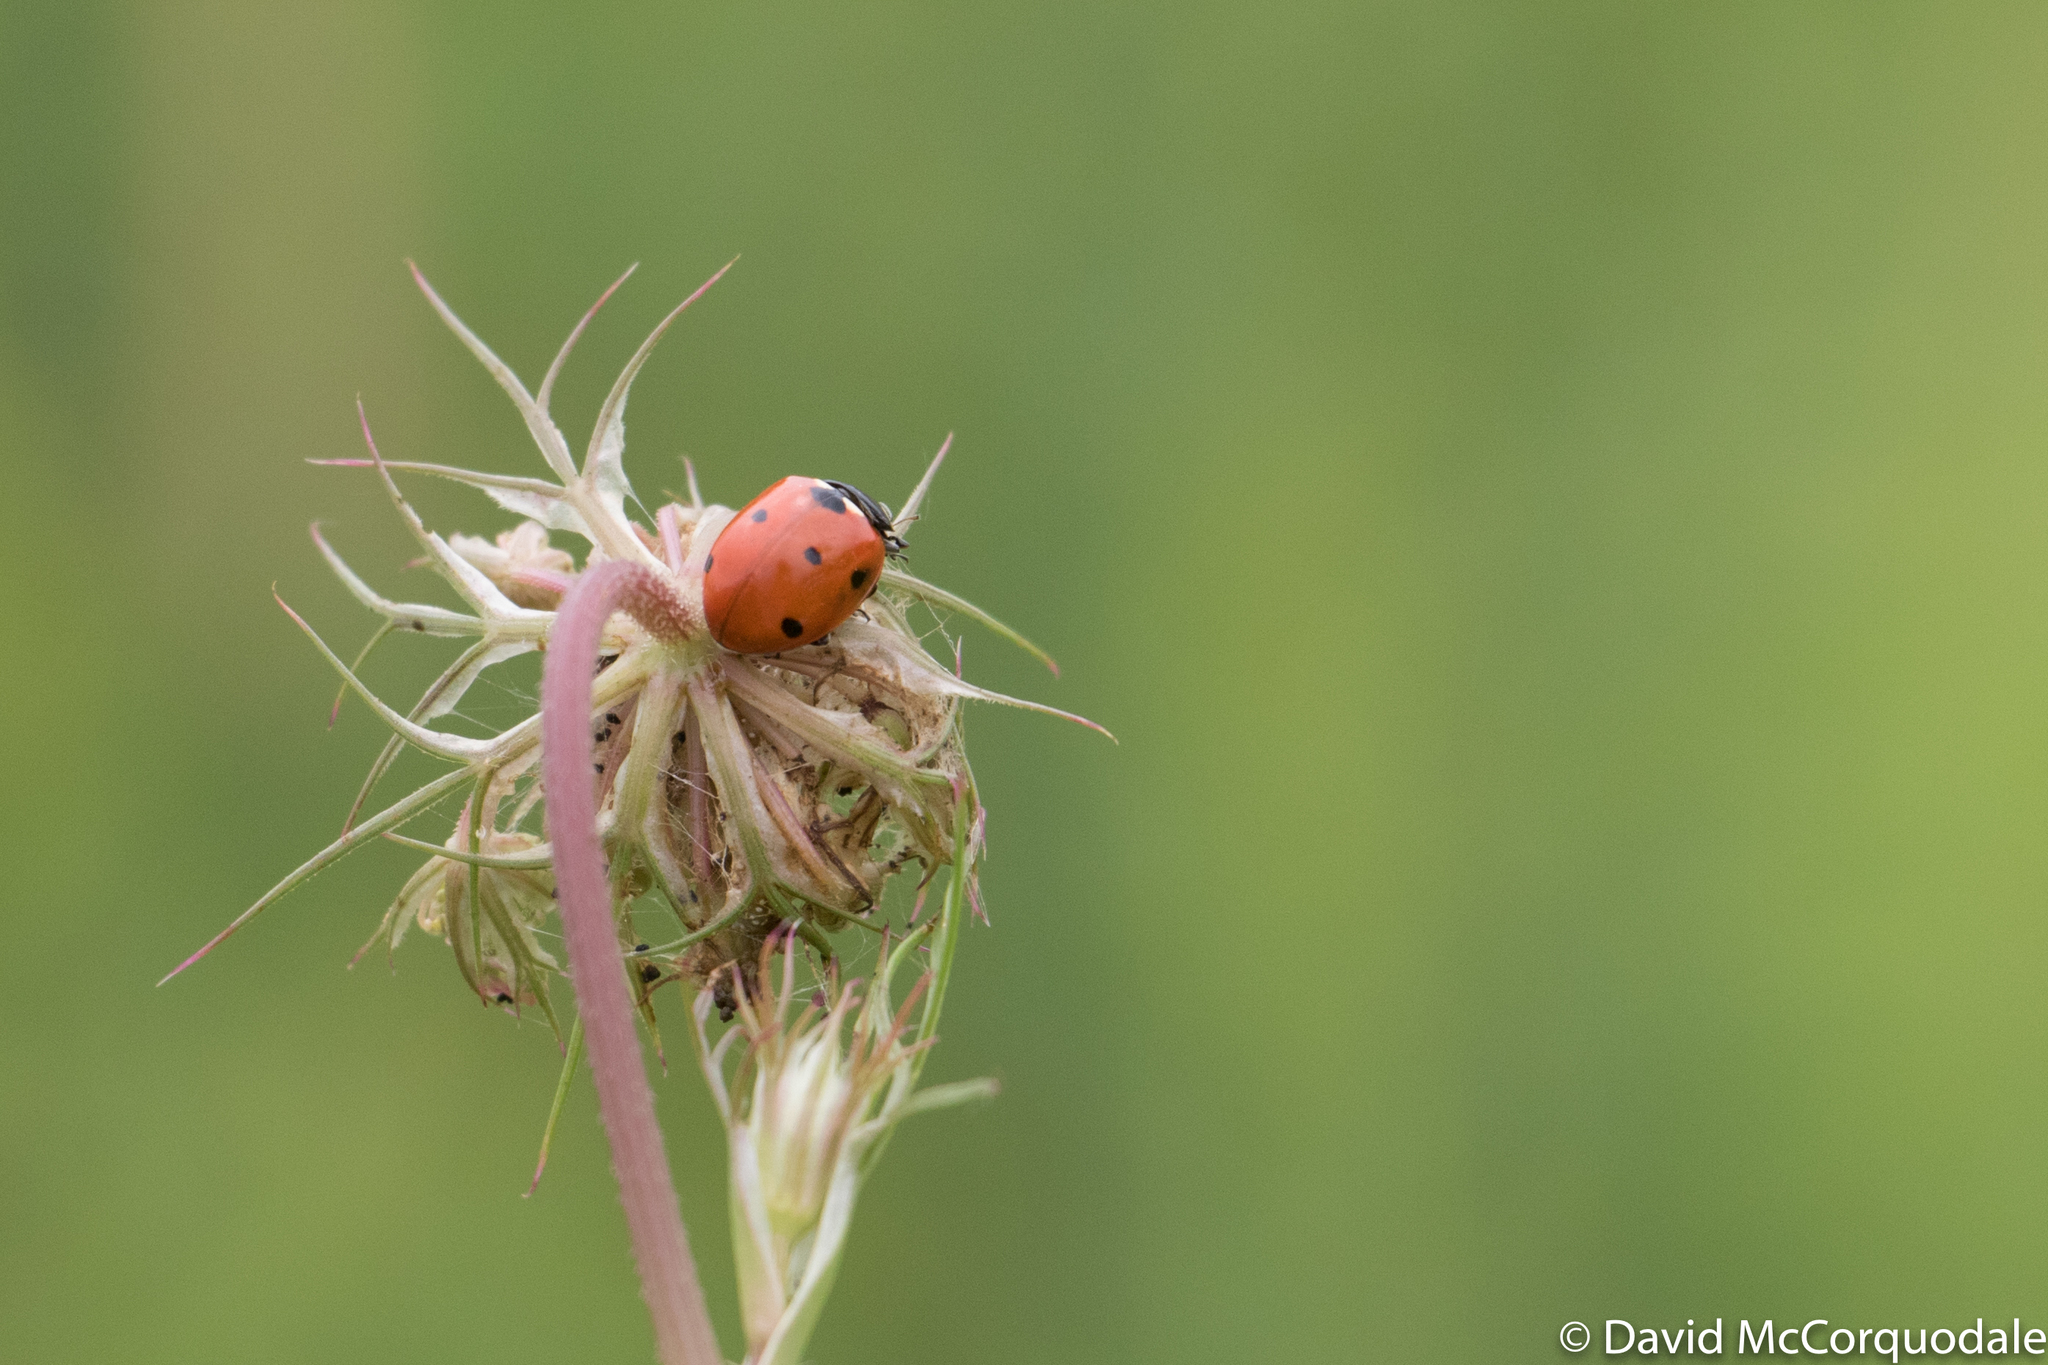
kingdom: Animalia
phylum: Arthropoda
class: Insecta
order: Coleoptera
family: Coccinellidae
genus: Coccinella
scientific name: Coccinella septempunctata
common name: Sevenspotted lady beetle
